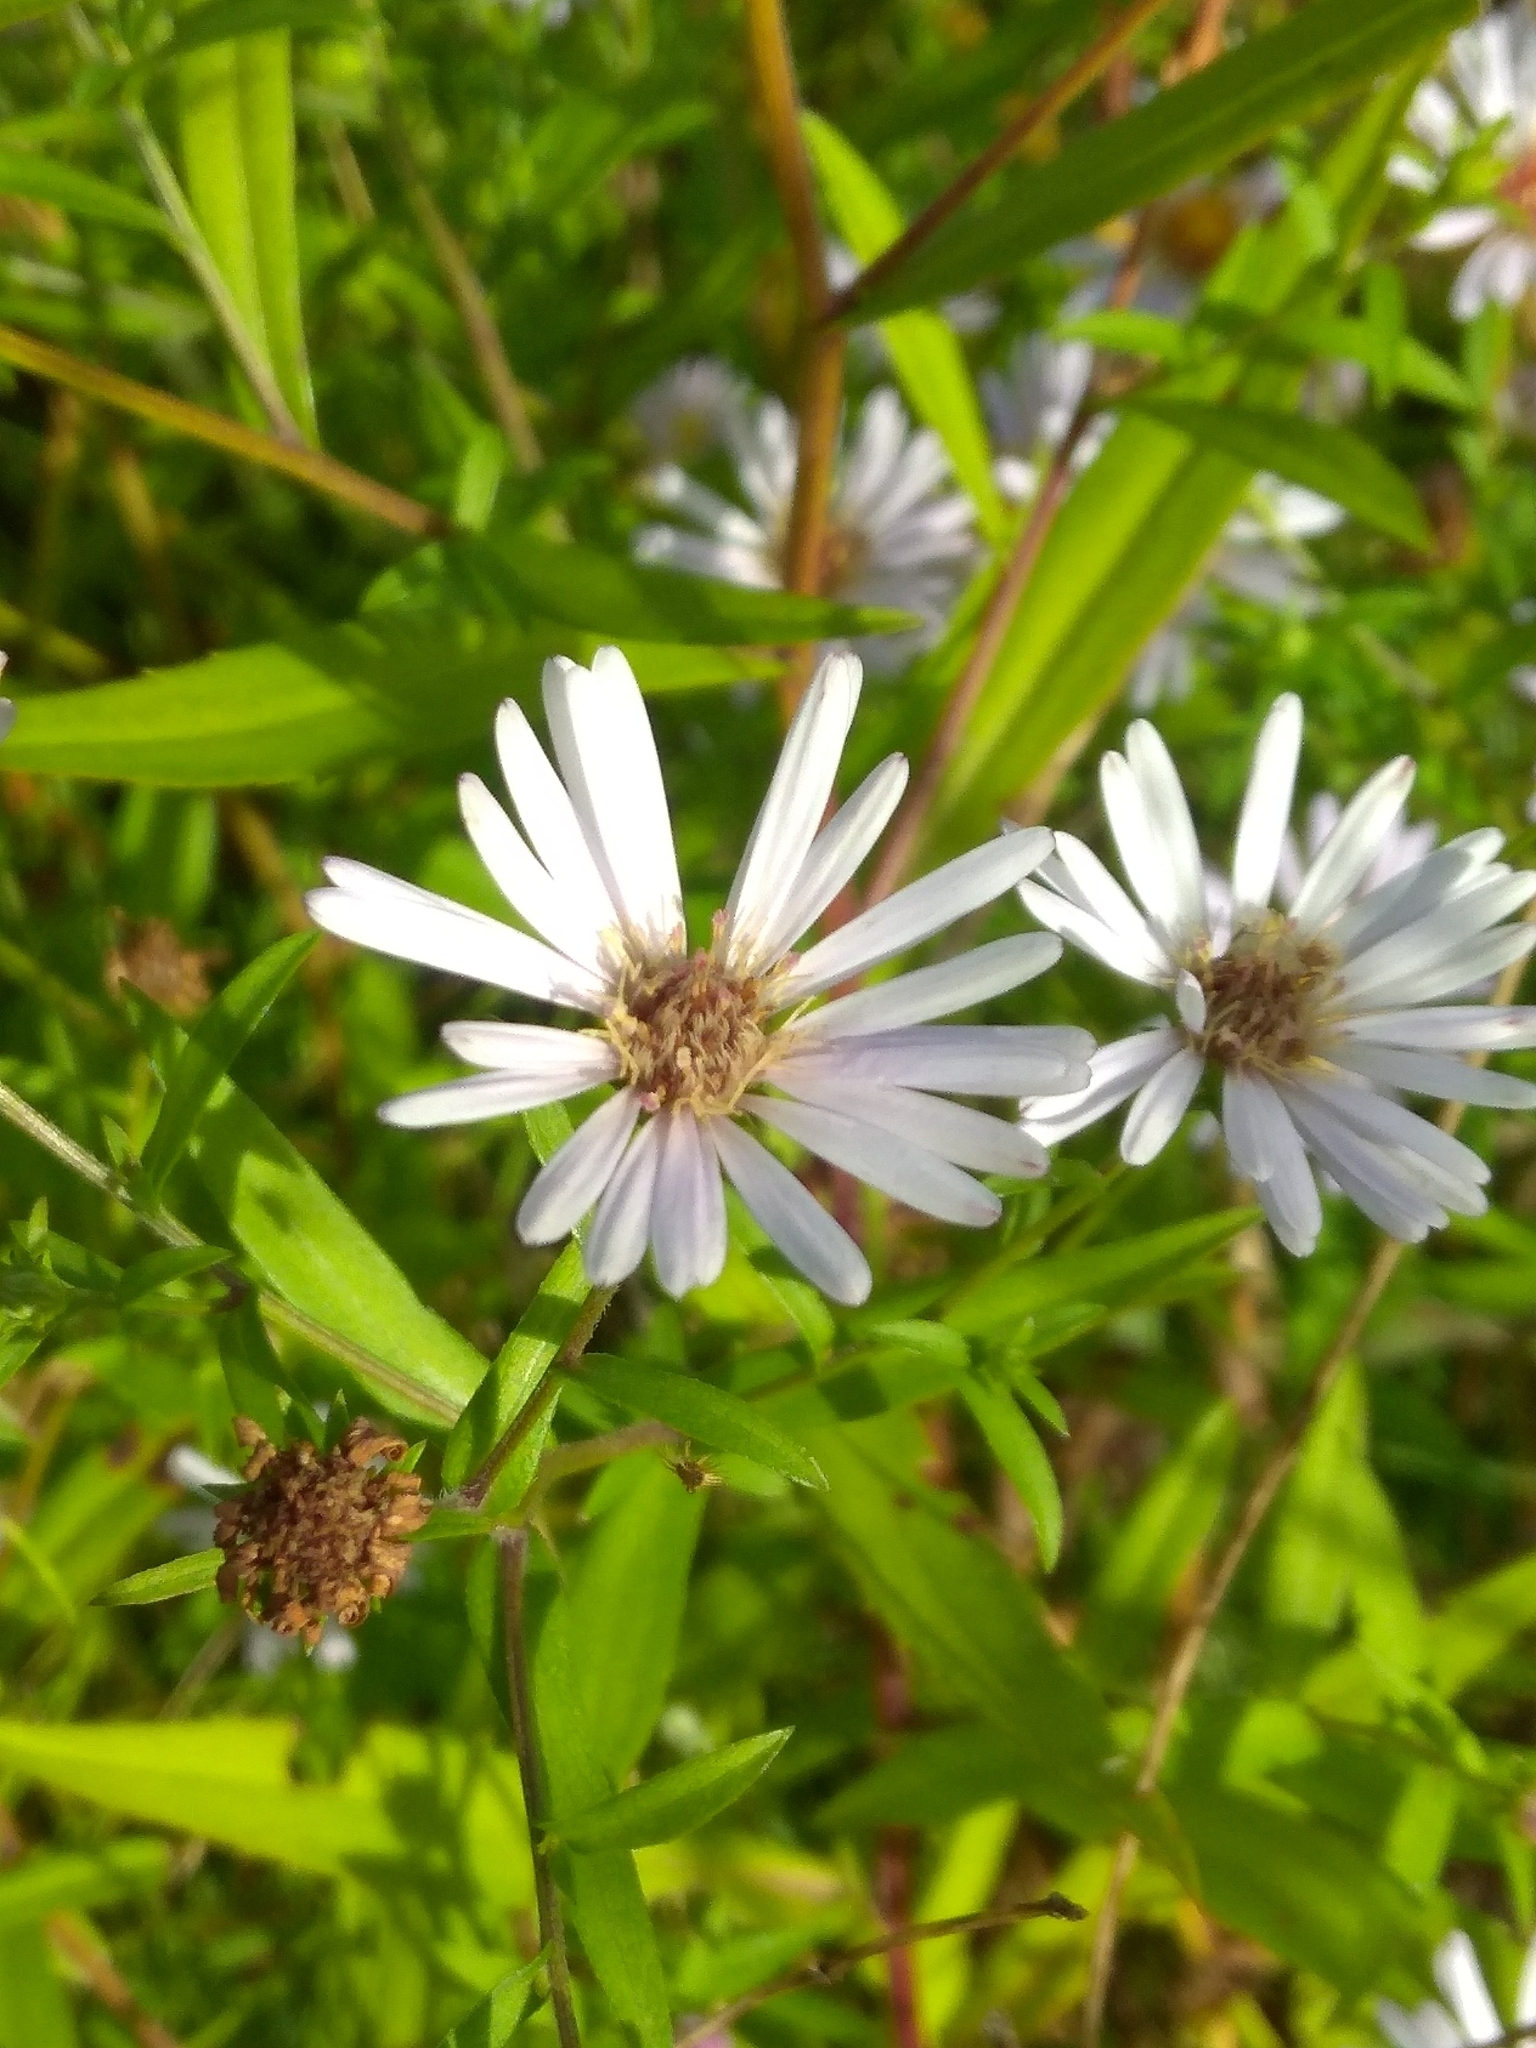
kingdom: Plantae
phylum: Tracheophyta
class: Magnoliopsida
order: Asterales
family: Asteraceae
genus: Symphyotrichum
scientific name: Symphyotrichum salignum
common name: Common michaelmas daisy
